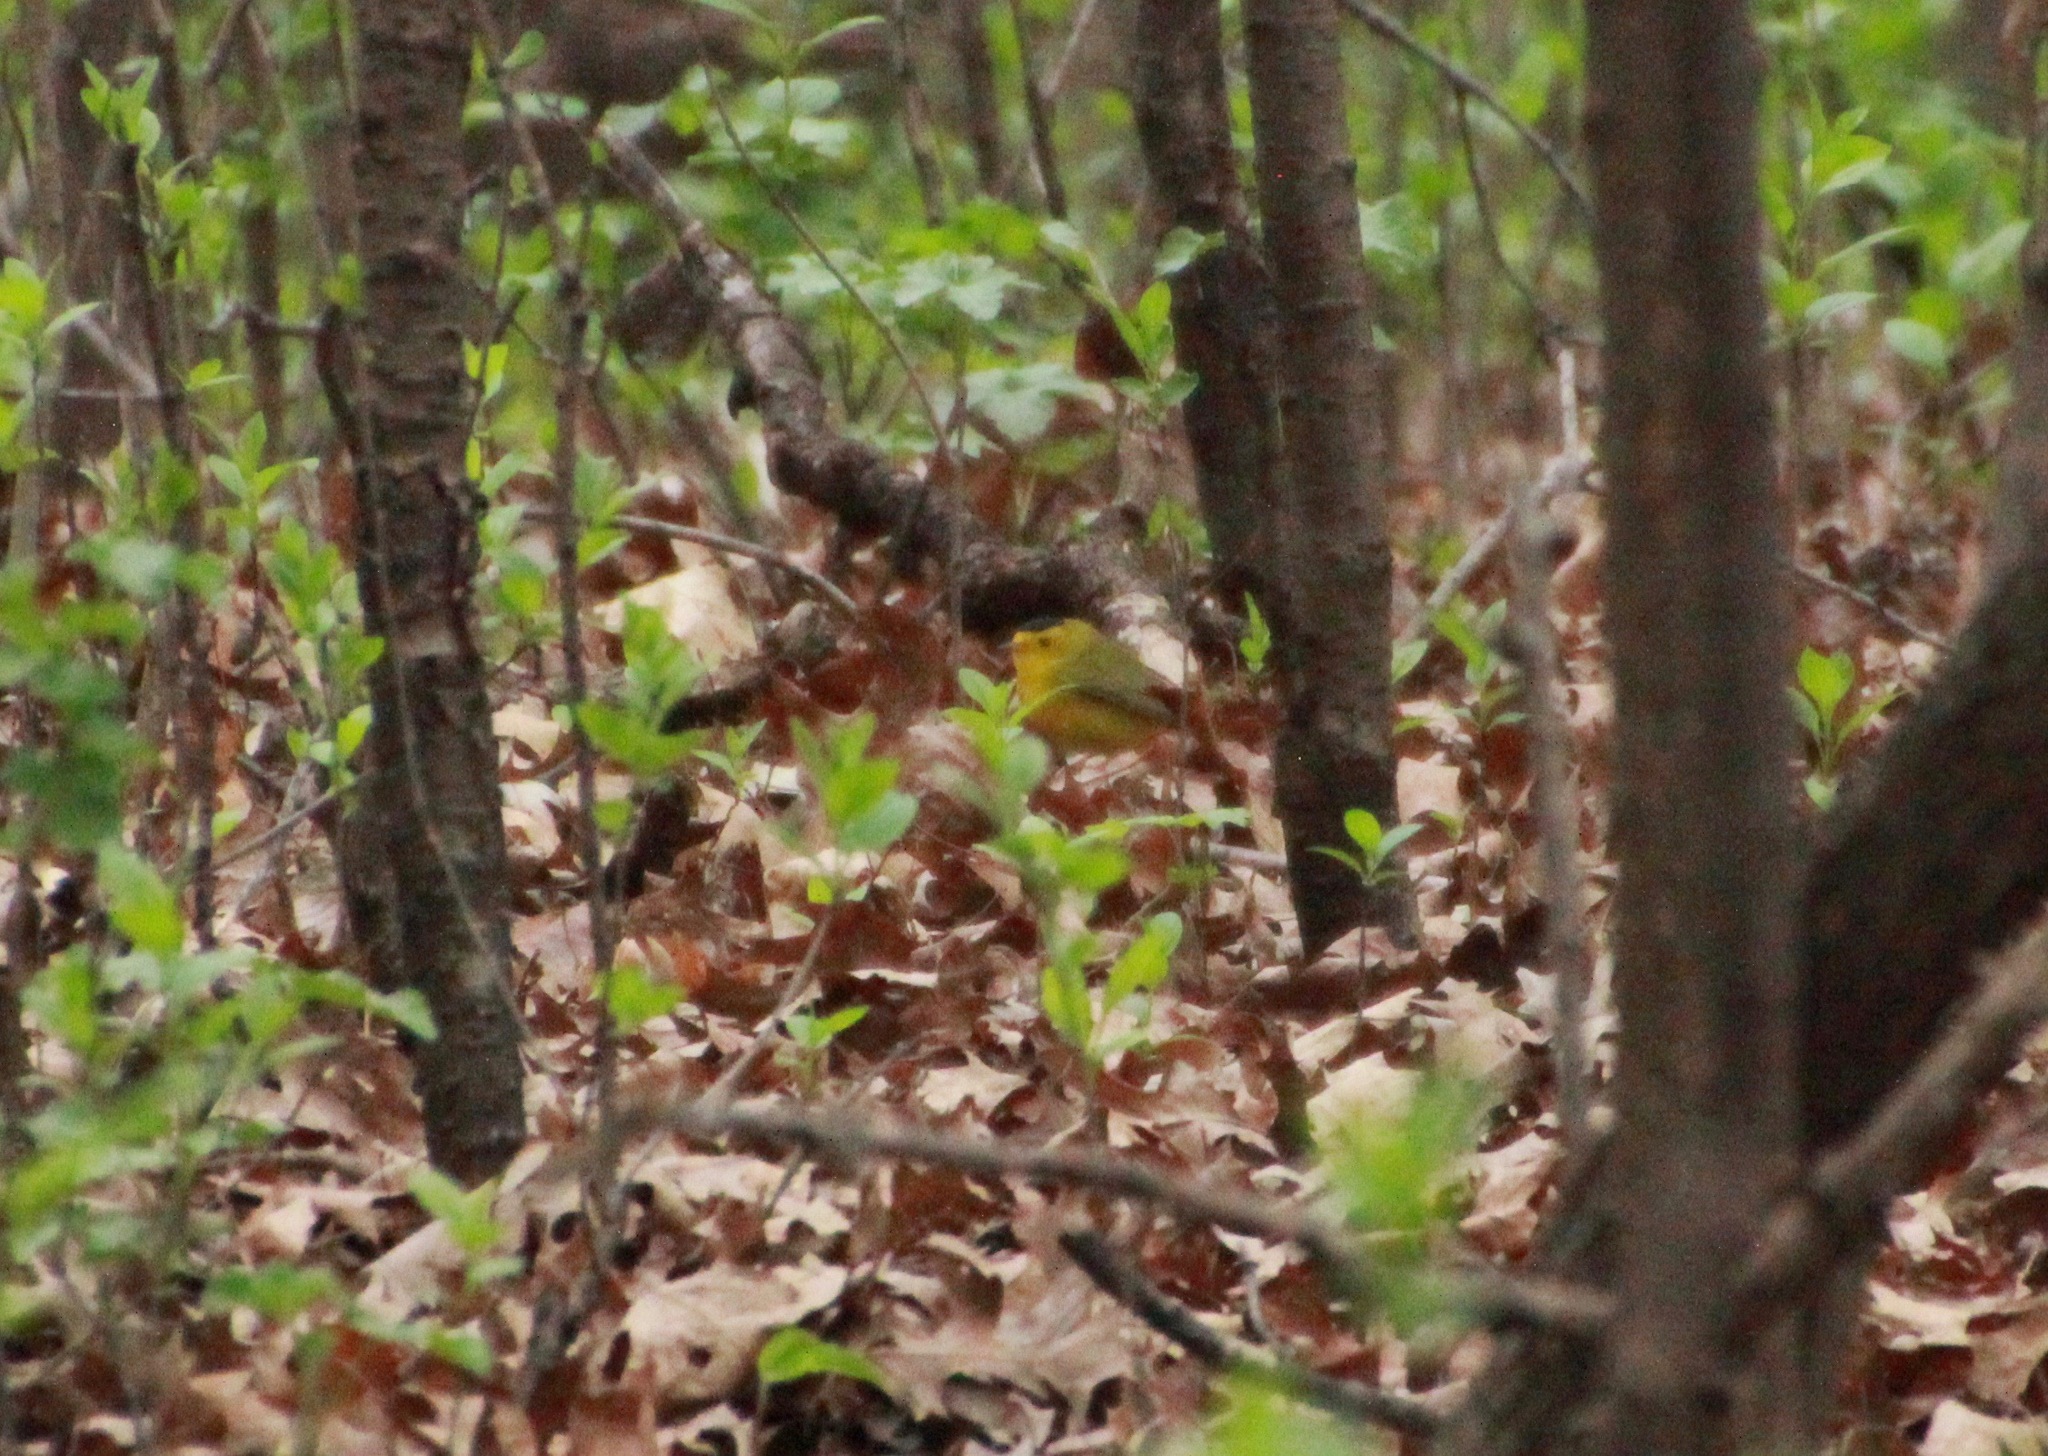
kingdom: Animalia
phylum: Chordata
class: Aves
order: Passeriformes
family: Parulidae
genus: Cardellina
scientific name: Cardellina pusilla
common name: Wilson's warbler
